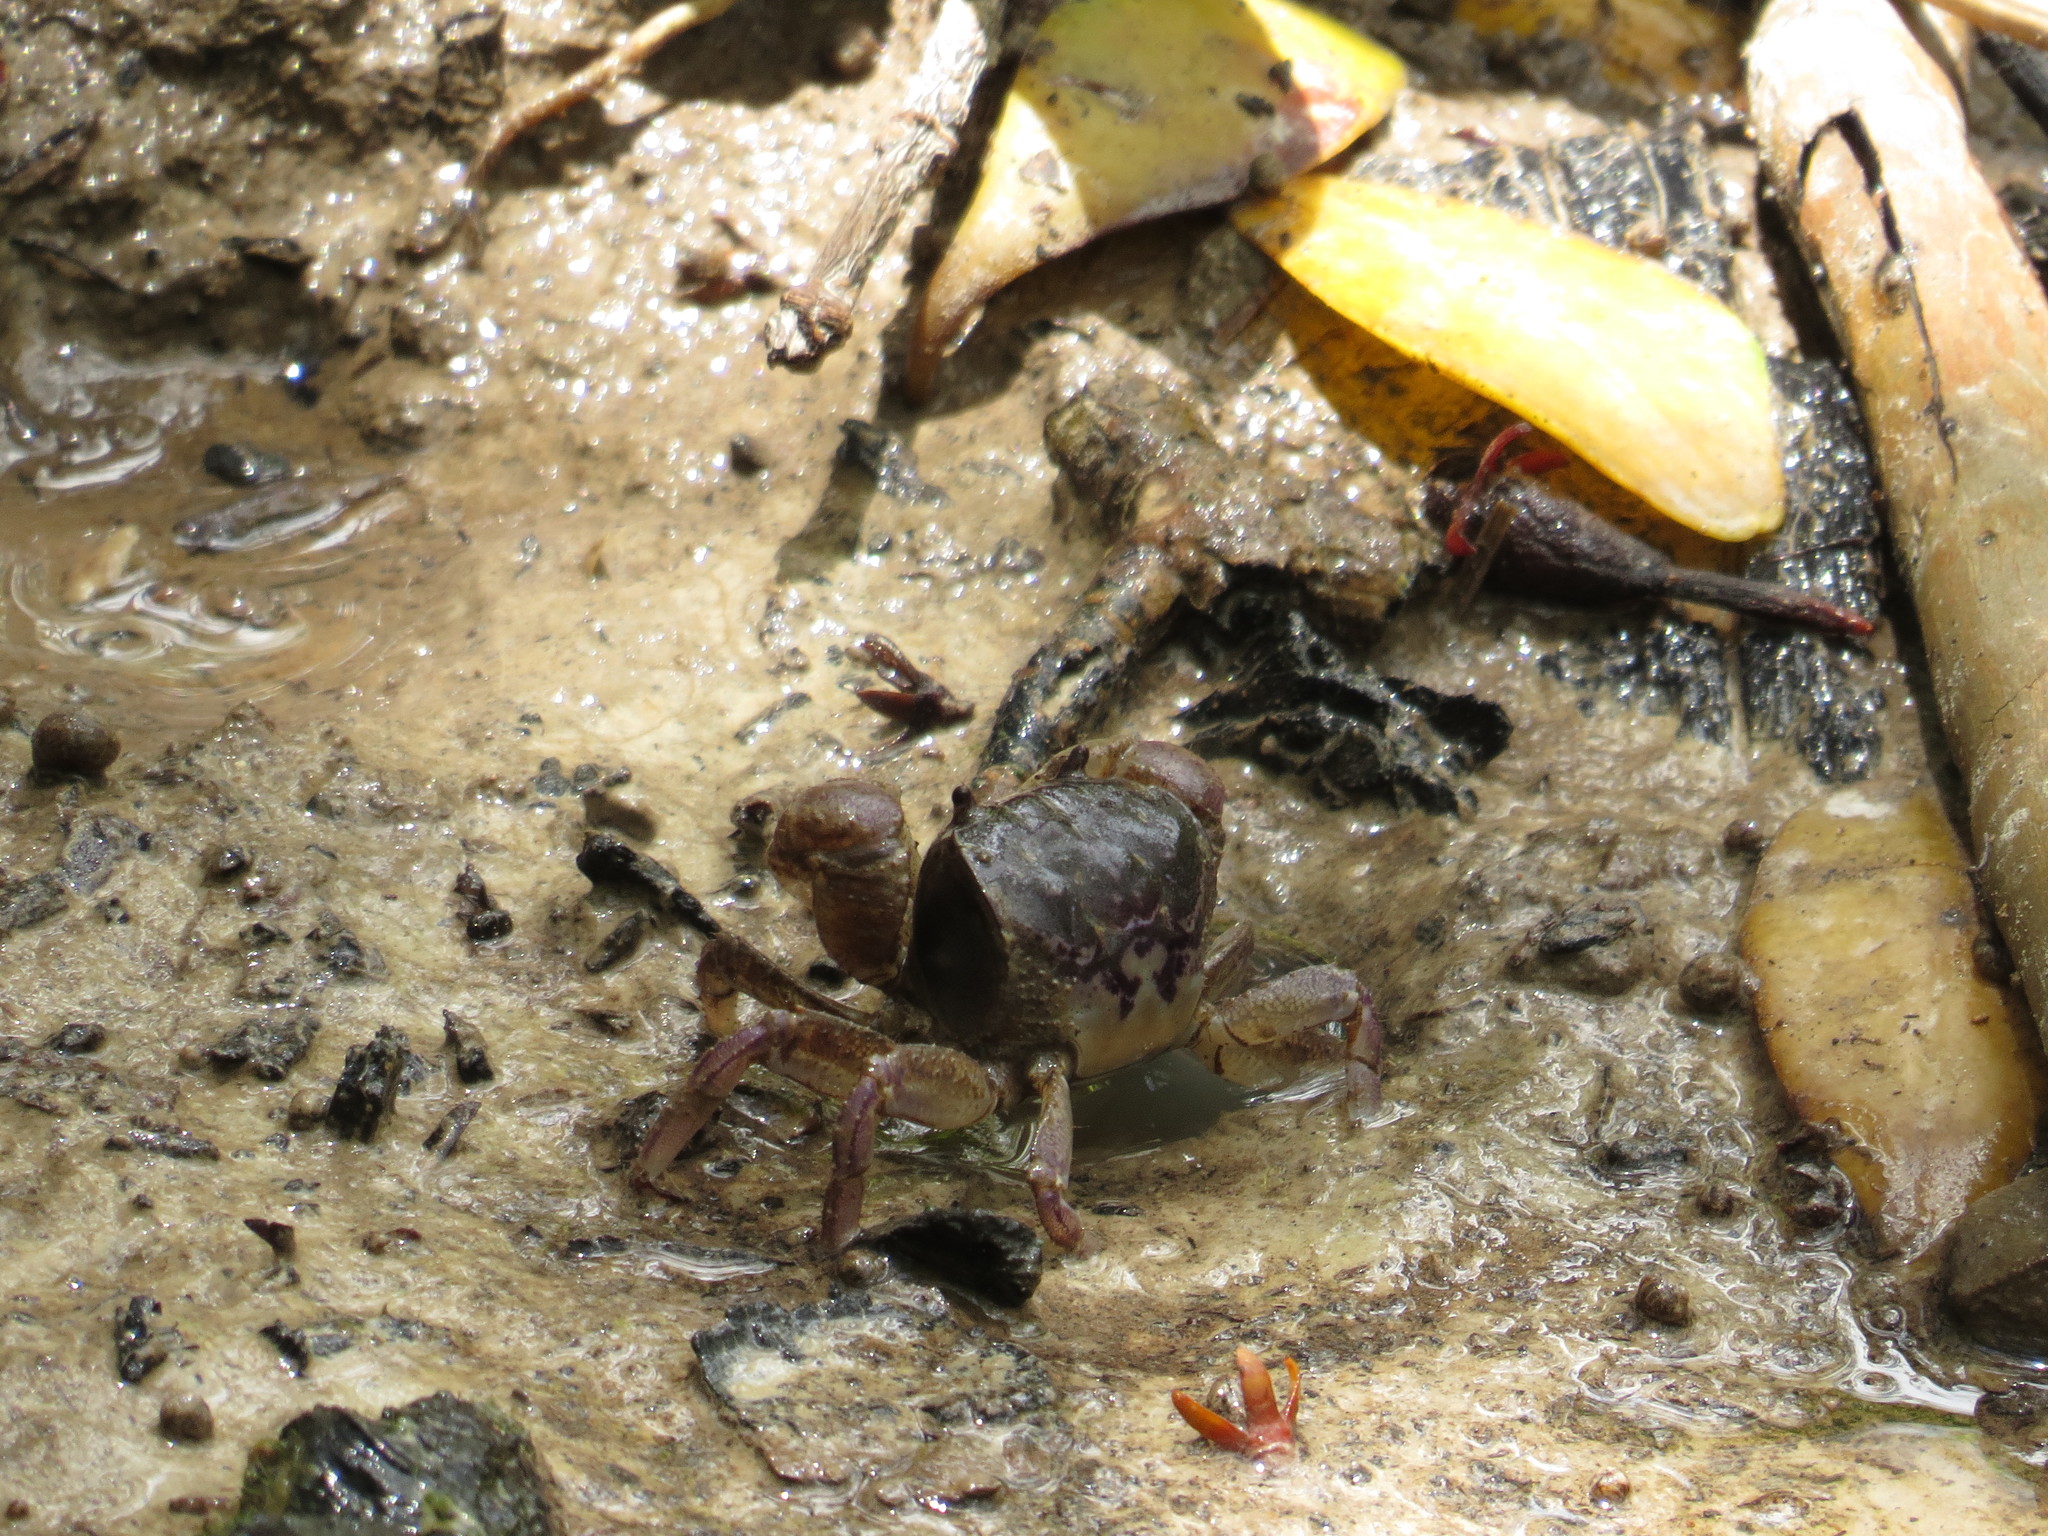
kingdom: Animalia
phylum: Arthropoda
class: Malacostraca
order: Decapoda
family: Varunidae
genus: Pseudohelice
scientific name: Pseudohelice subquadrata
